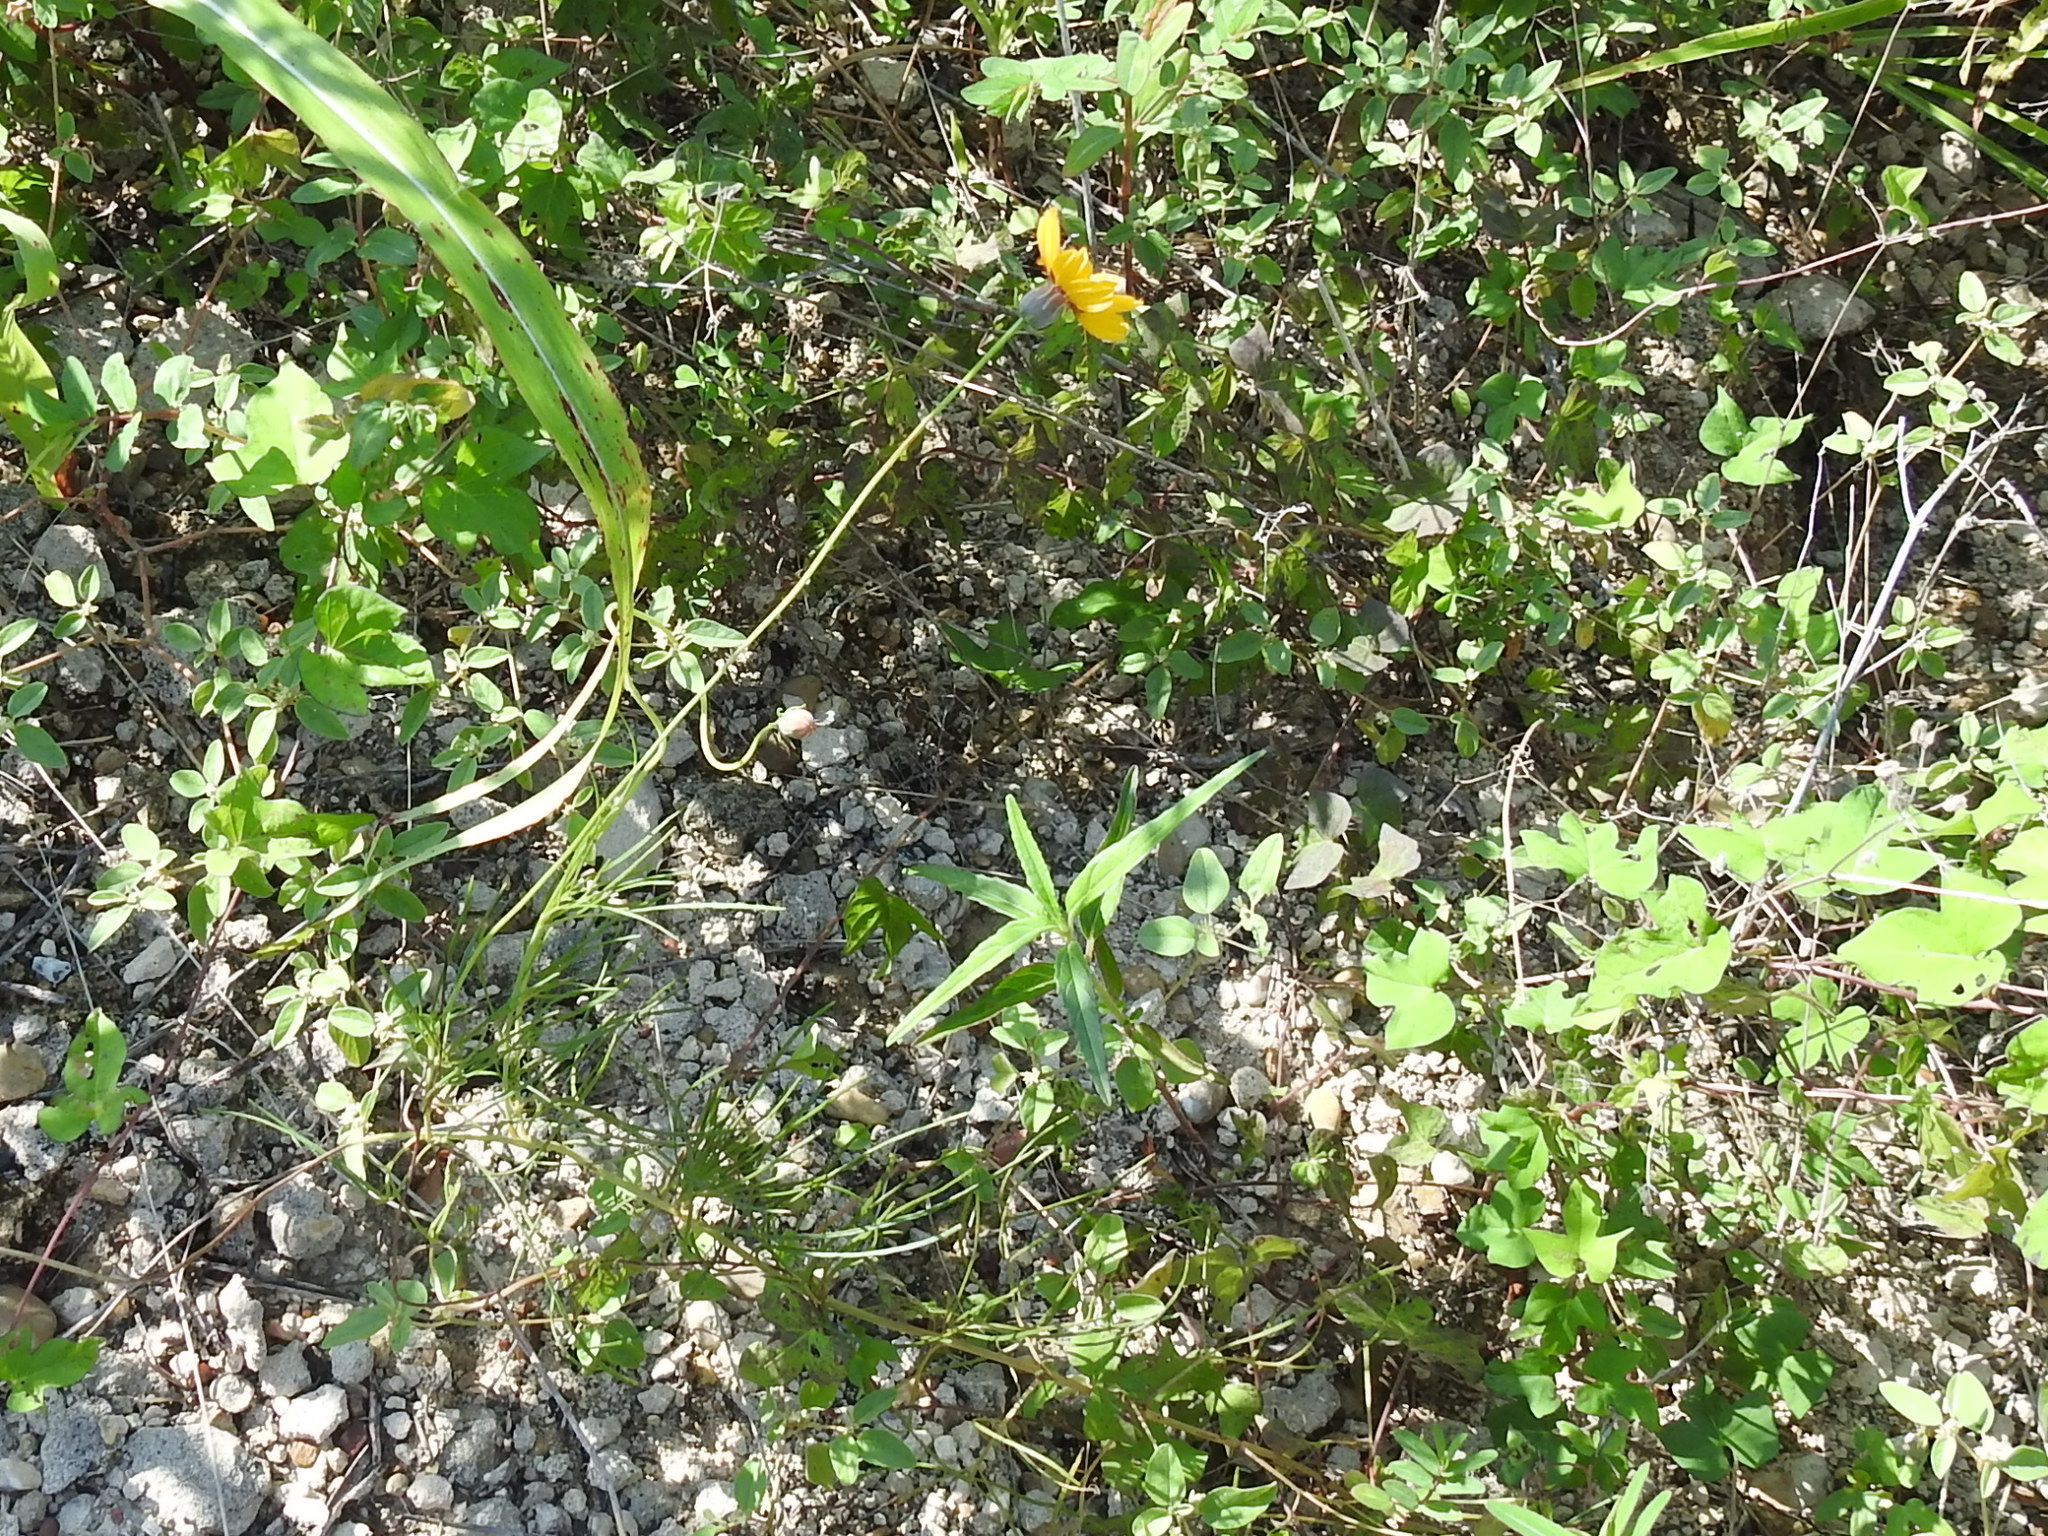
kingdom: Plantae
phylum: Tracheophyta
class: Magnoliopsida
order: Asterales
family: Asteraceae
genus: Thelesperma
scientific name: Thelesperma filifolium
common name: Stiff greenthread
